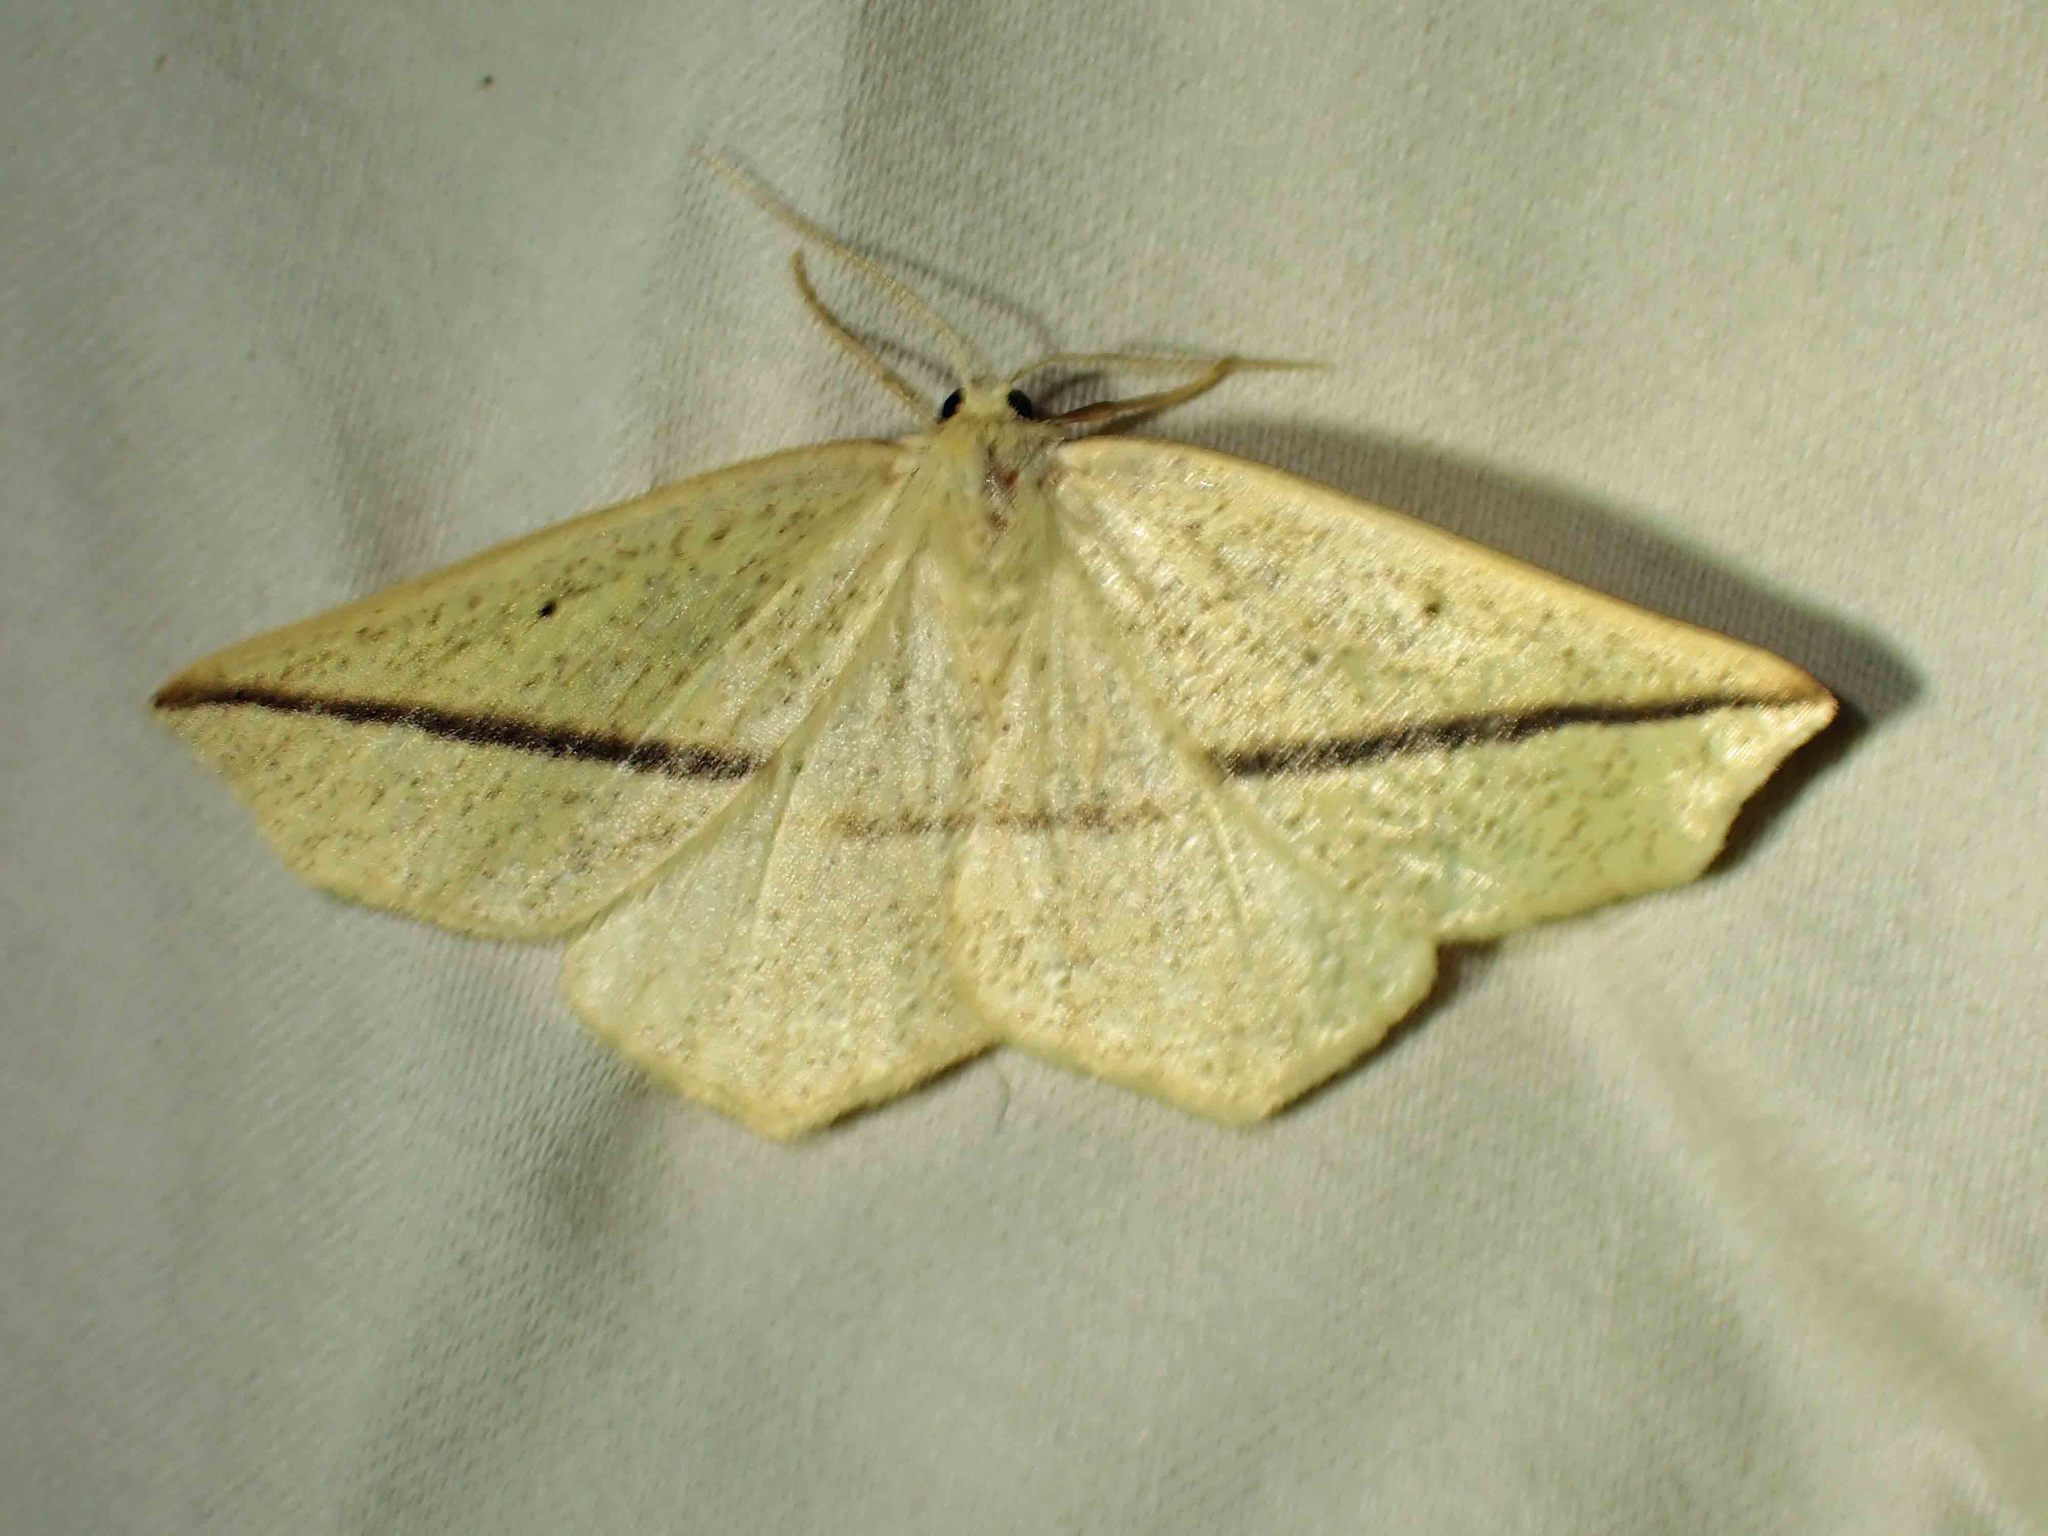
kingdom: Animalia
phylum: Arthropoda
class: Insecta
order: Lepidoptera
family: Geometridae
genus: Tetracis
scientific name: Tetracis crocallata
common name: Yellow slant-line
